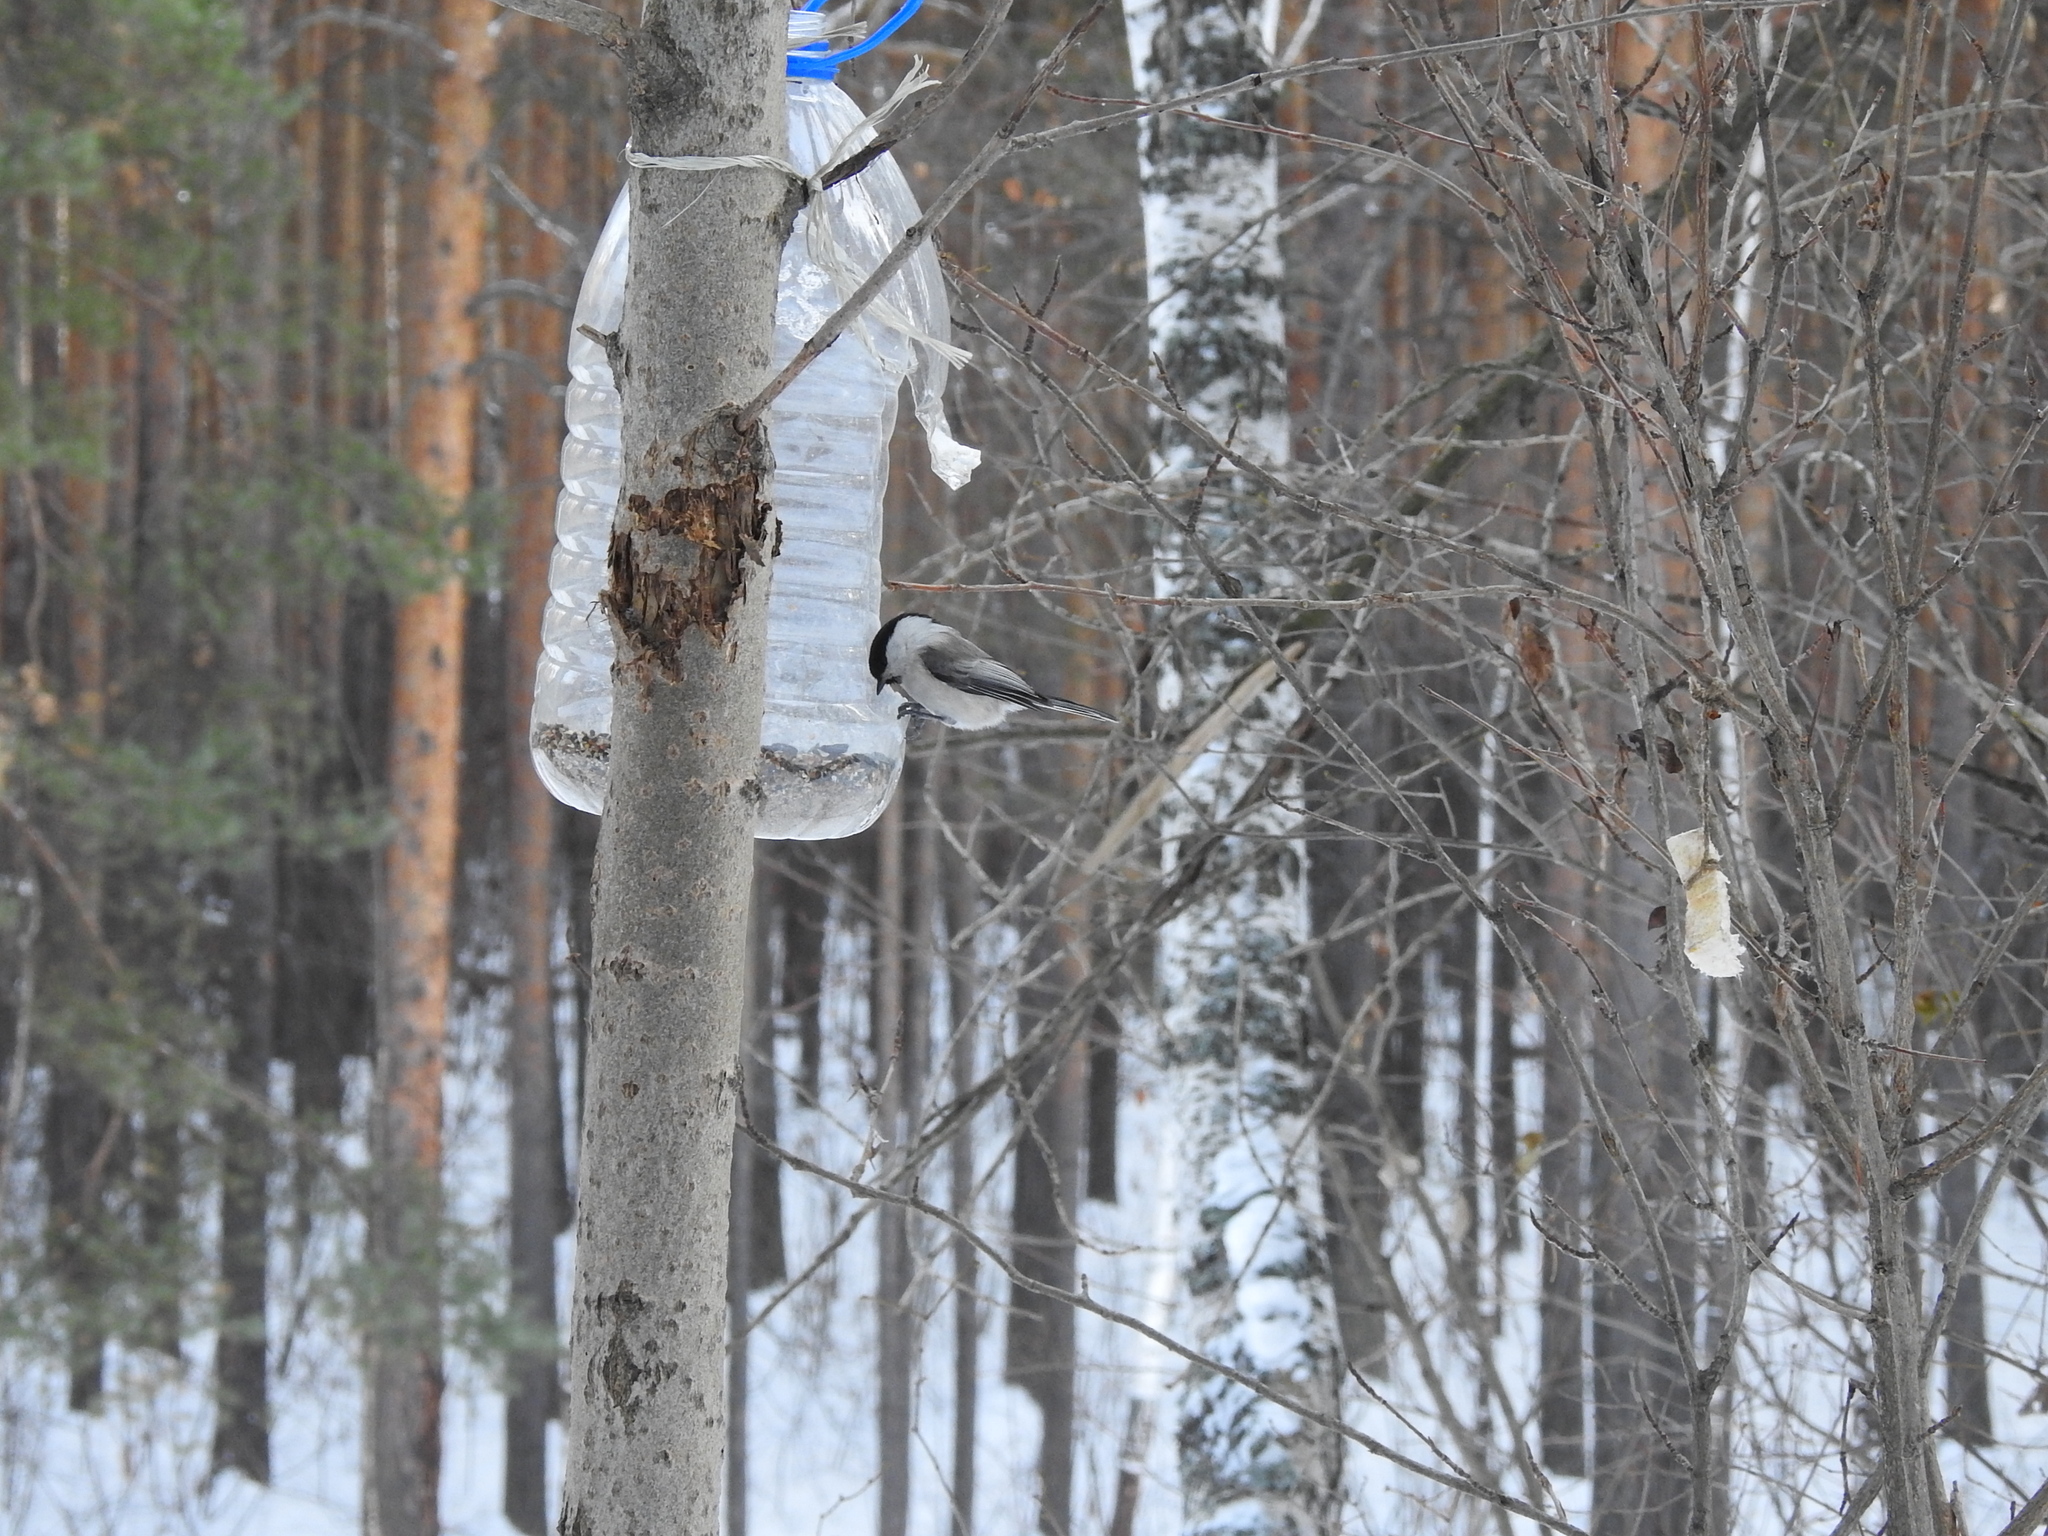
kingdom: Animalia
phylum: Chordata
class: Aves
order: Passeriformes
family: Paridae
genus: Poecile
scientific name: Poecile montanus
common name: Willow tit
